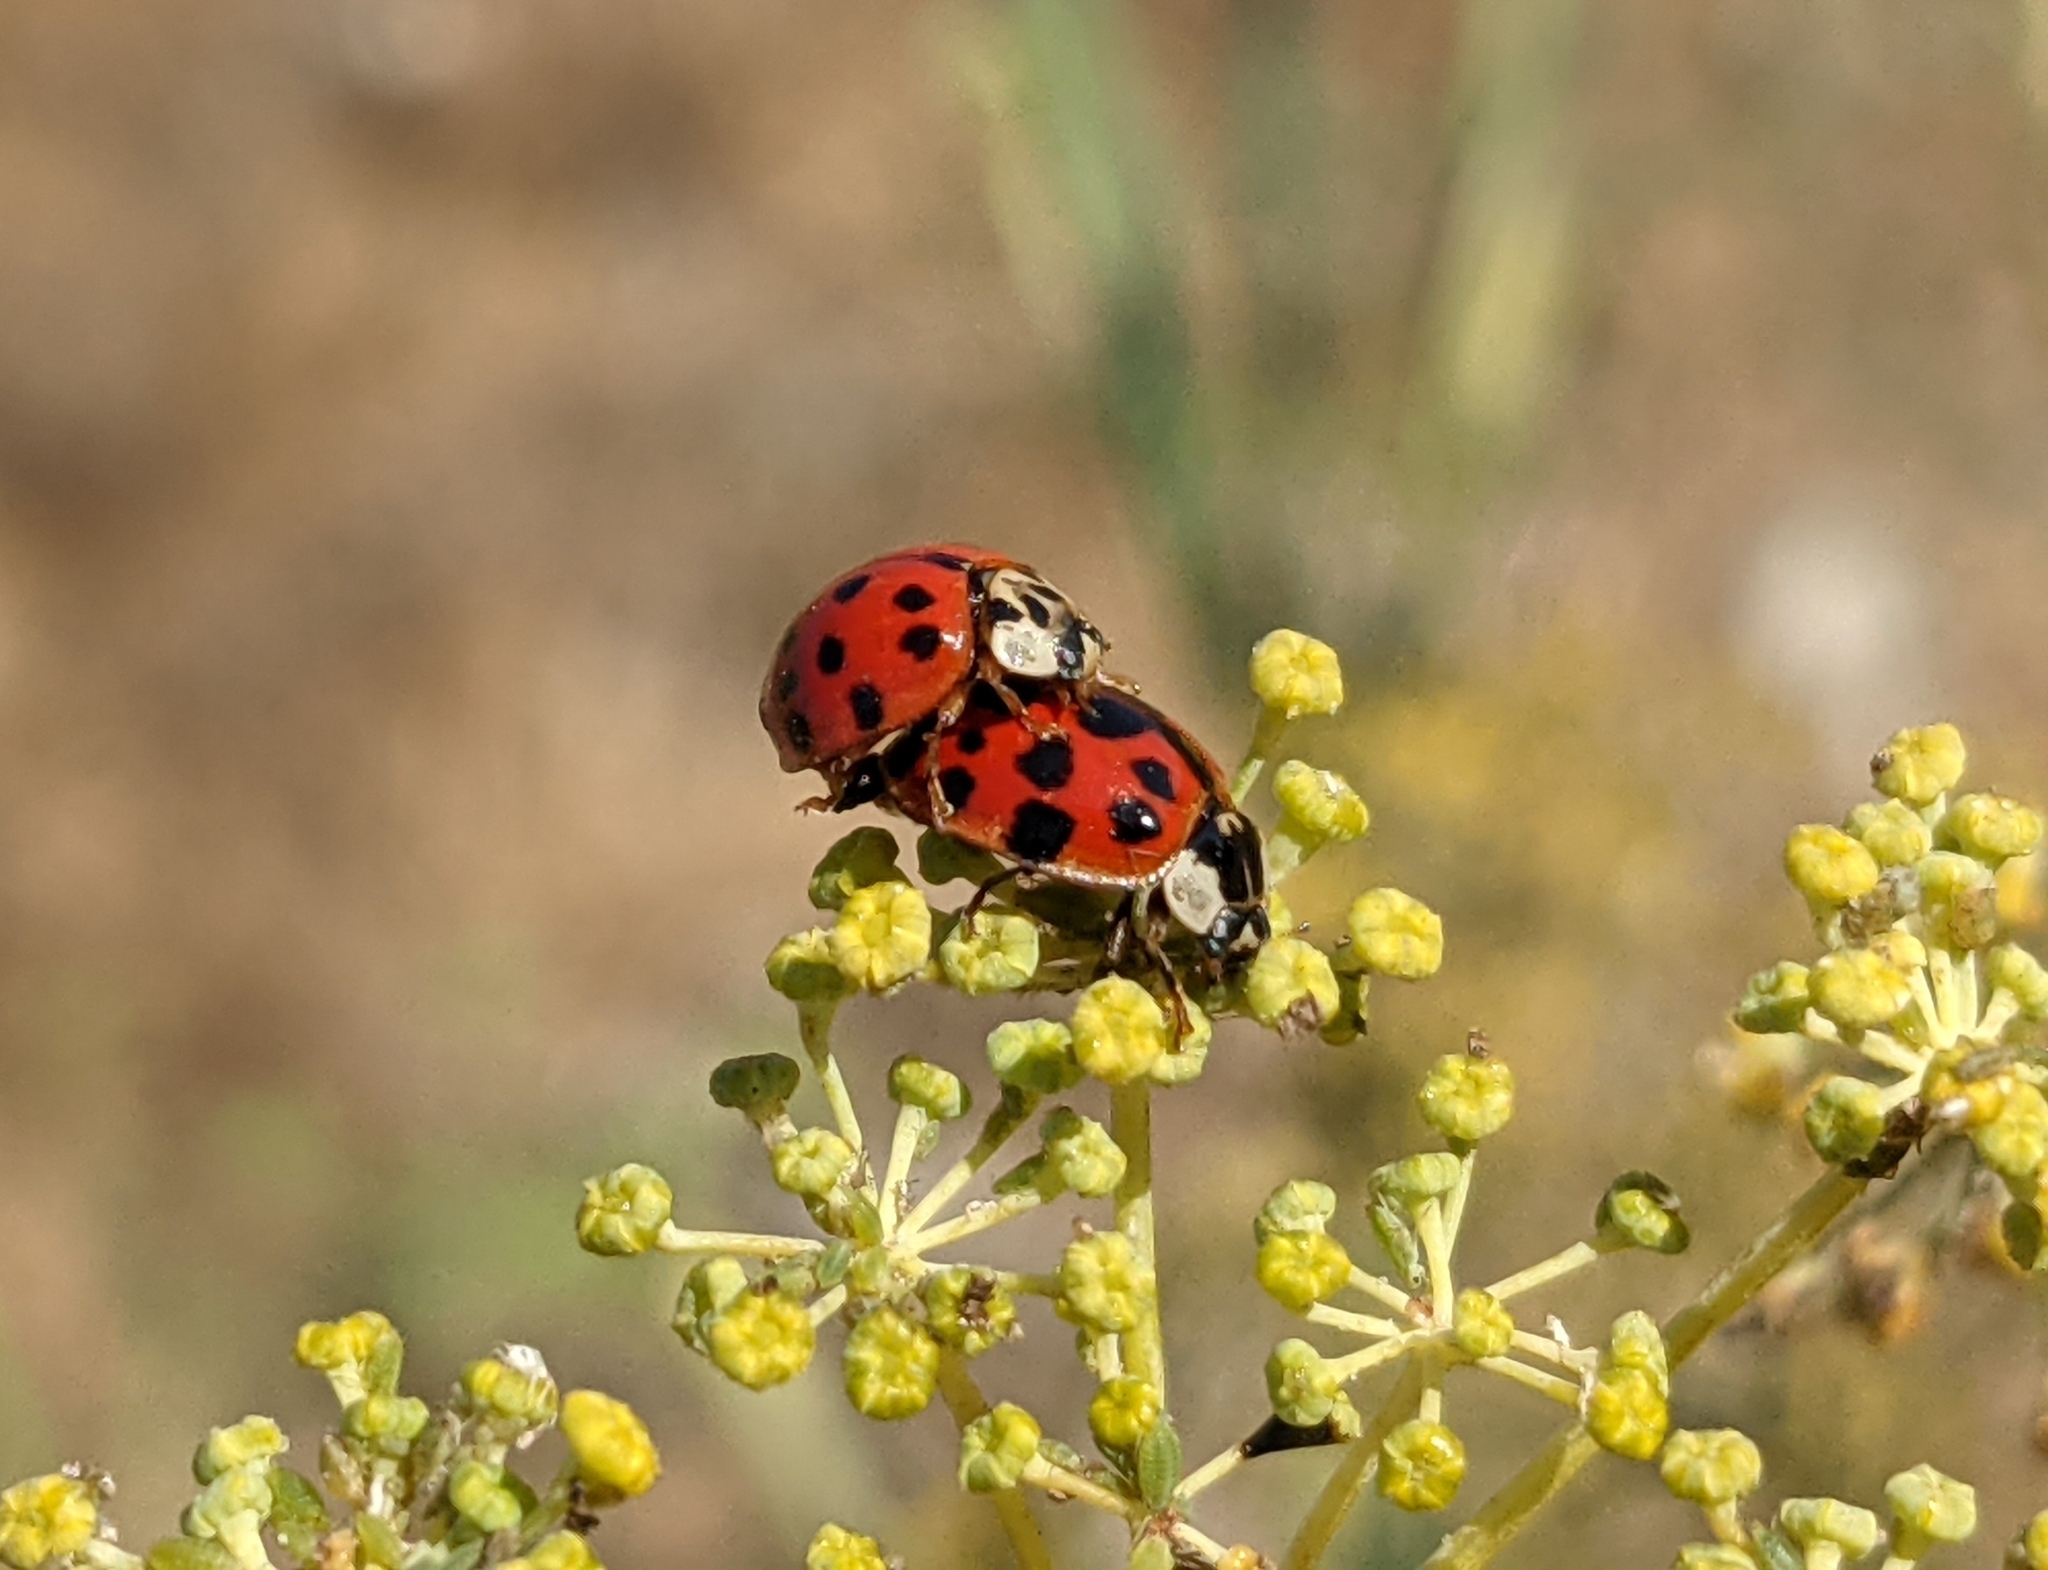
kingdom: Animalia
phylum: Arthropoda
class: Insecta
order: Coleoptera
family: Coccinellidae
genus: Harmonia
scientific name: Harmonia axyridis
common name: Harlequin ladybird
